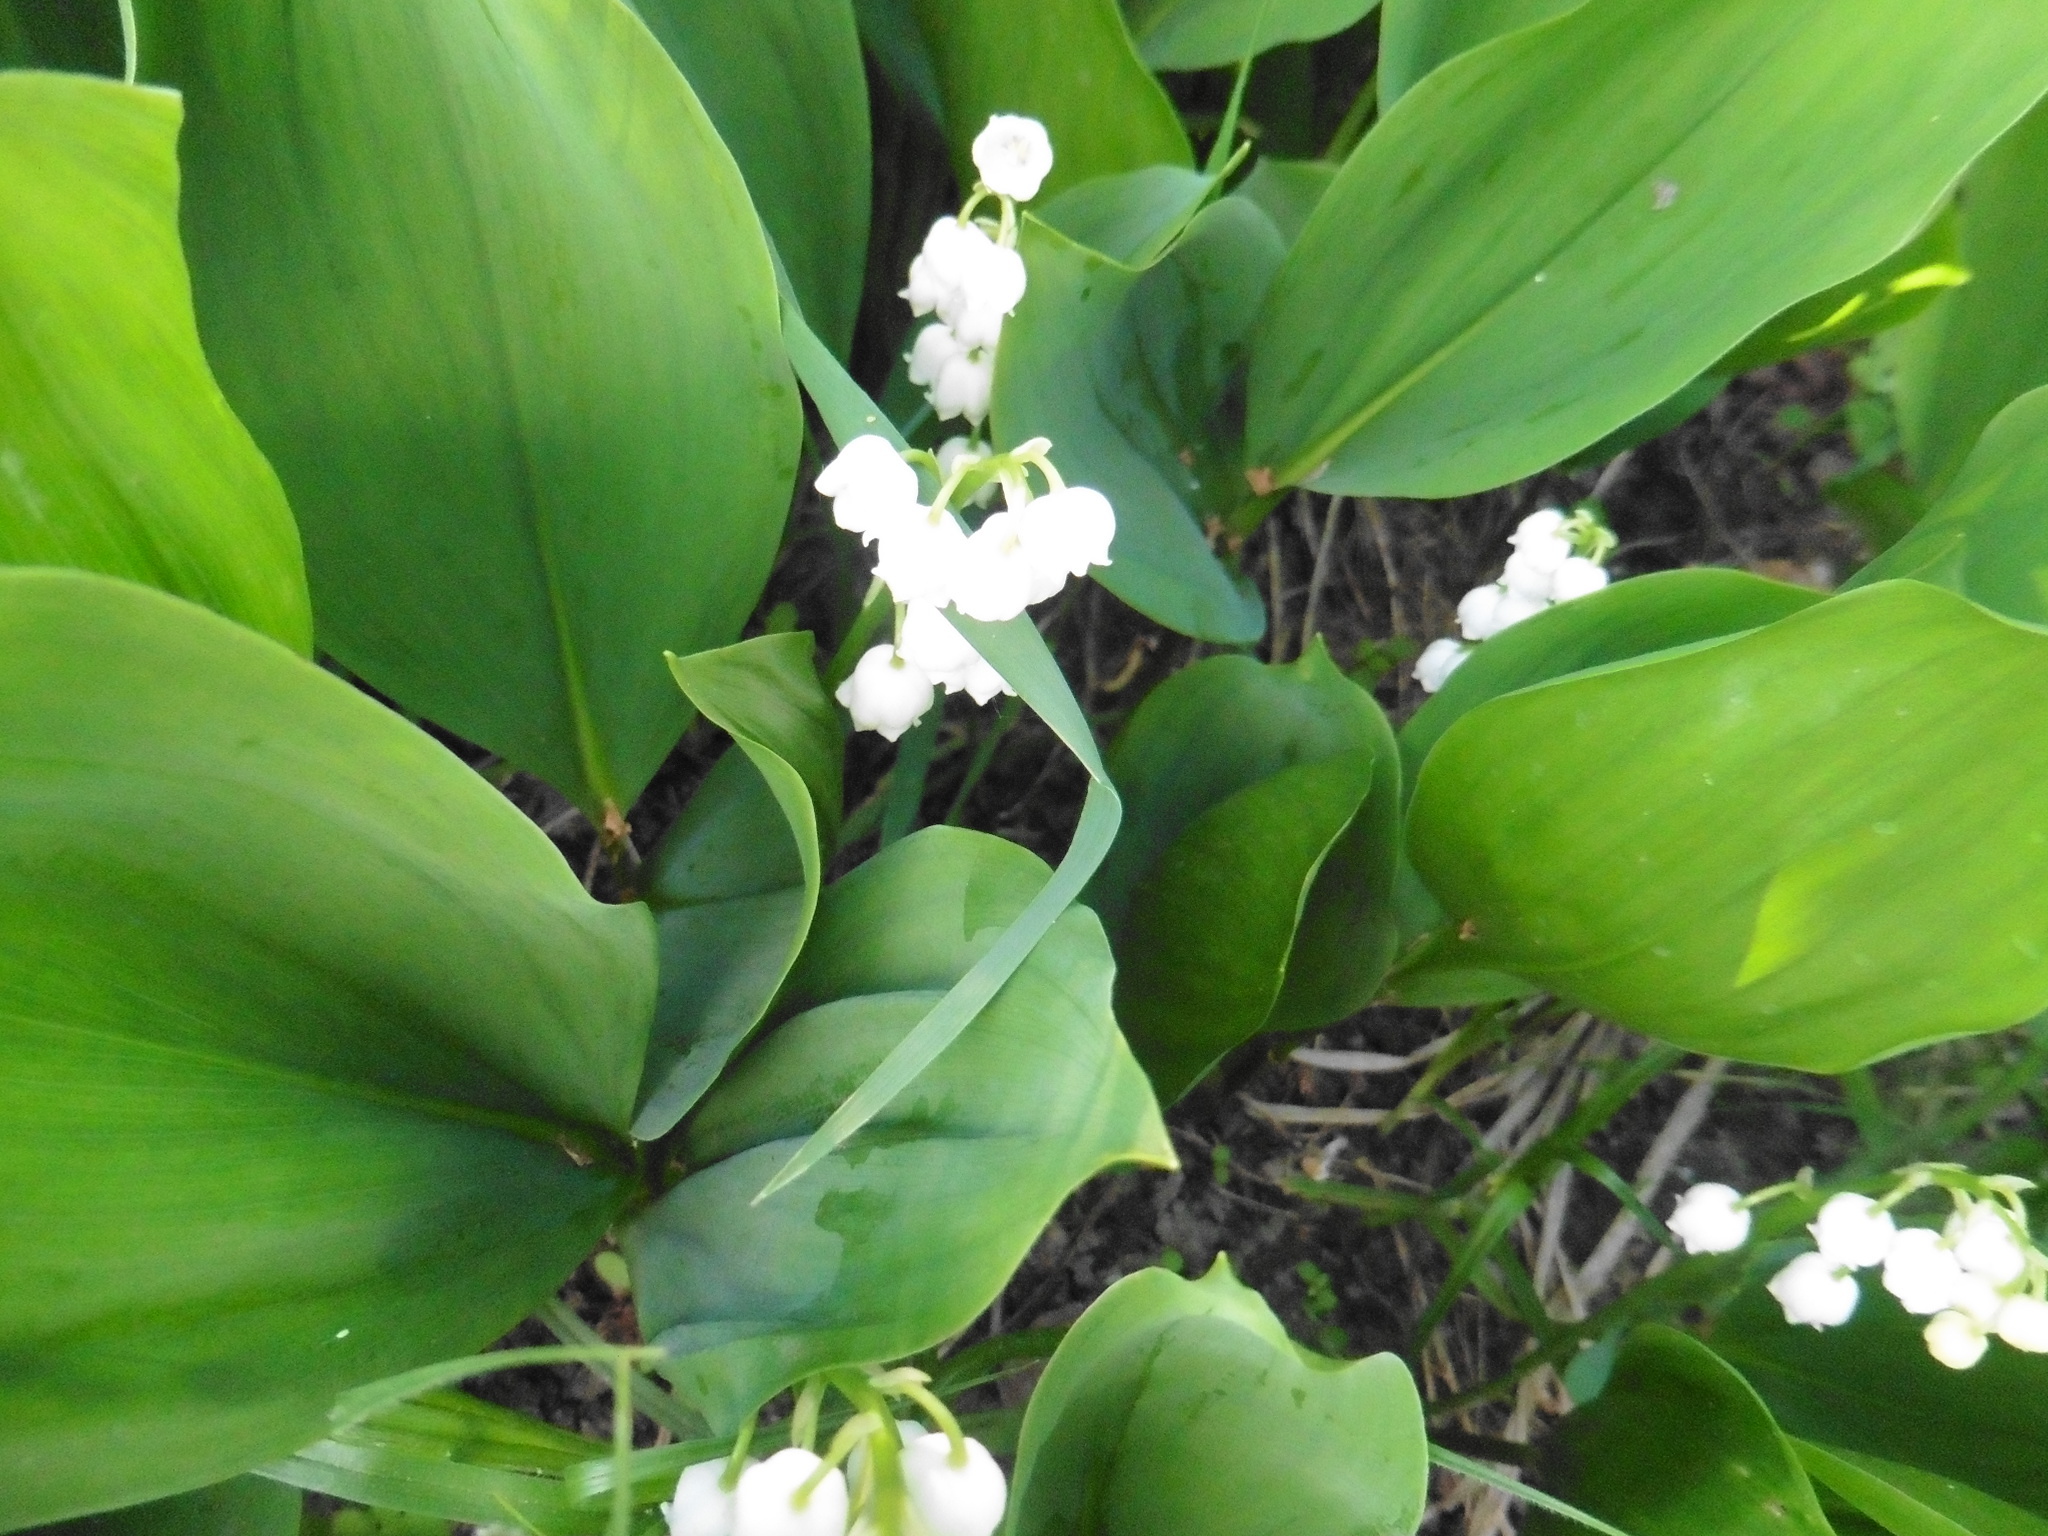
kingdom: Plantae
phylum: Tracheophyta
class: Liliopsida
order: Asparagales
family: Asparagaceae
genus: Convallaria
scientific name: Convallaria majalis
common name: Lily-of-the-valley
